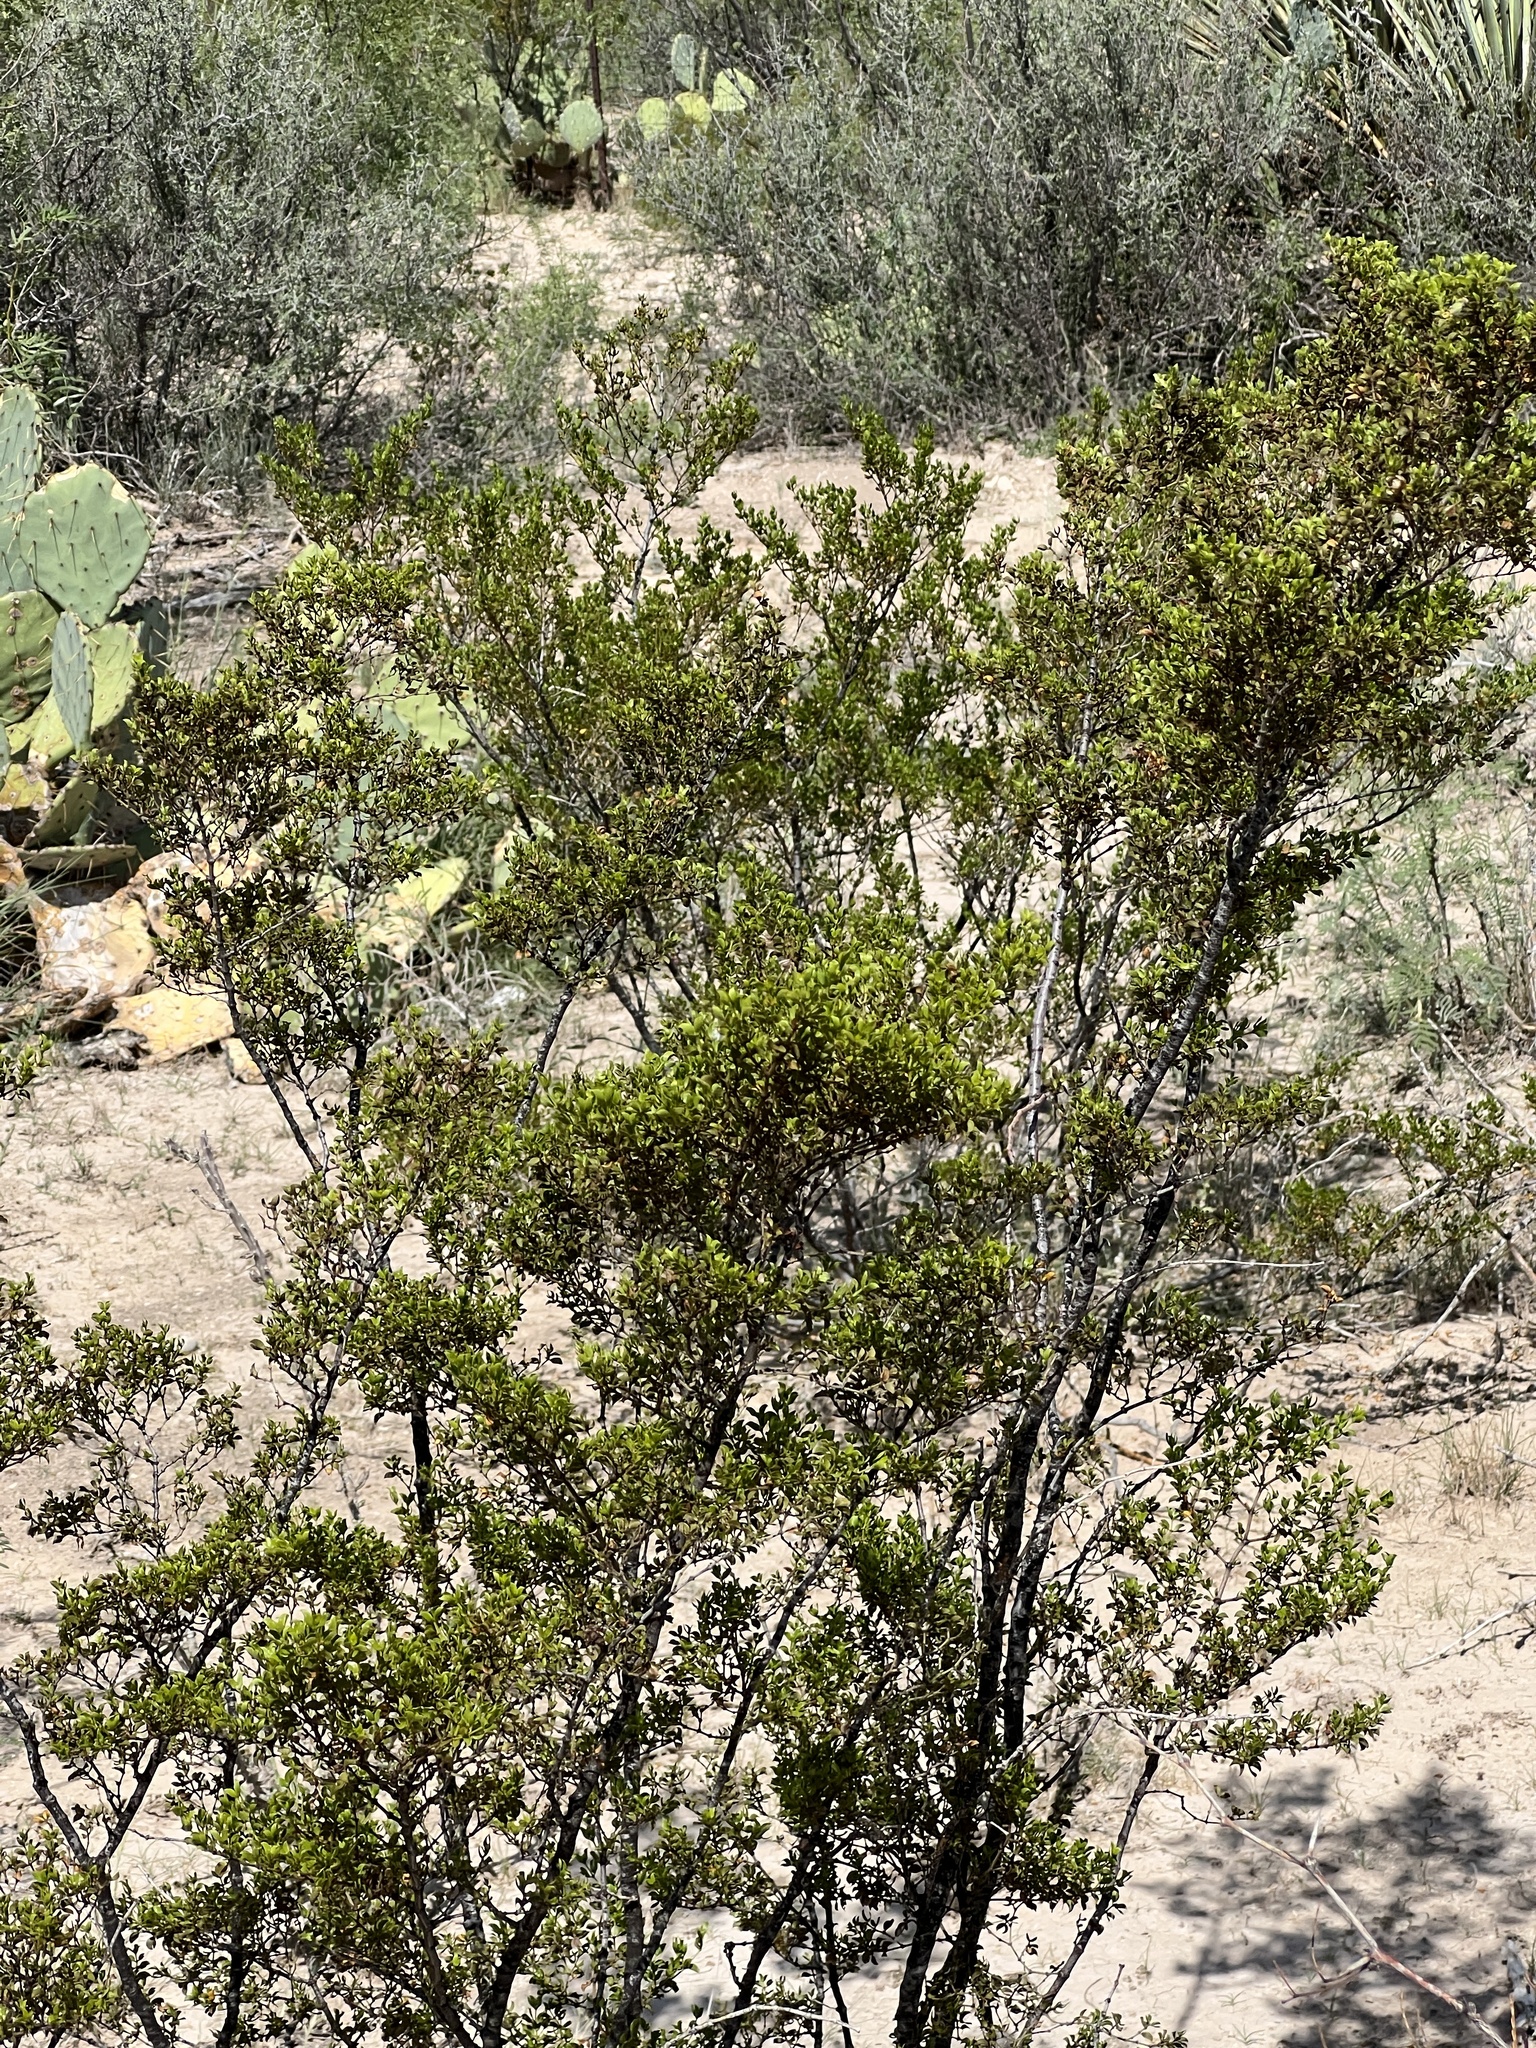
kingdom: Plantae
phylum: Tracheophyta
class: Magnoliopsida
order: Zygophyllales
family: Zygophyllaceae
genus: Larrea
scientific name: Larrea tridentata
